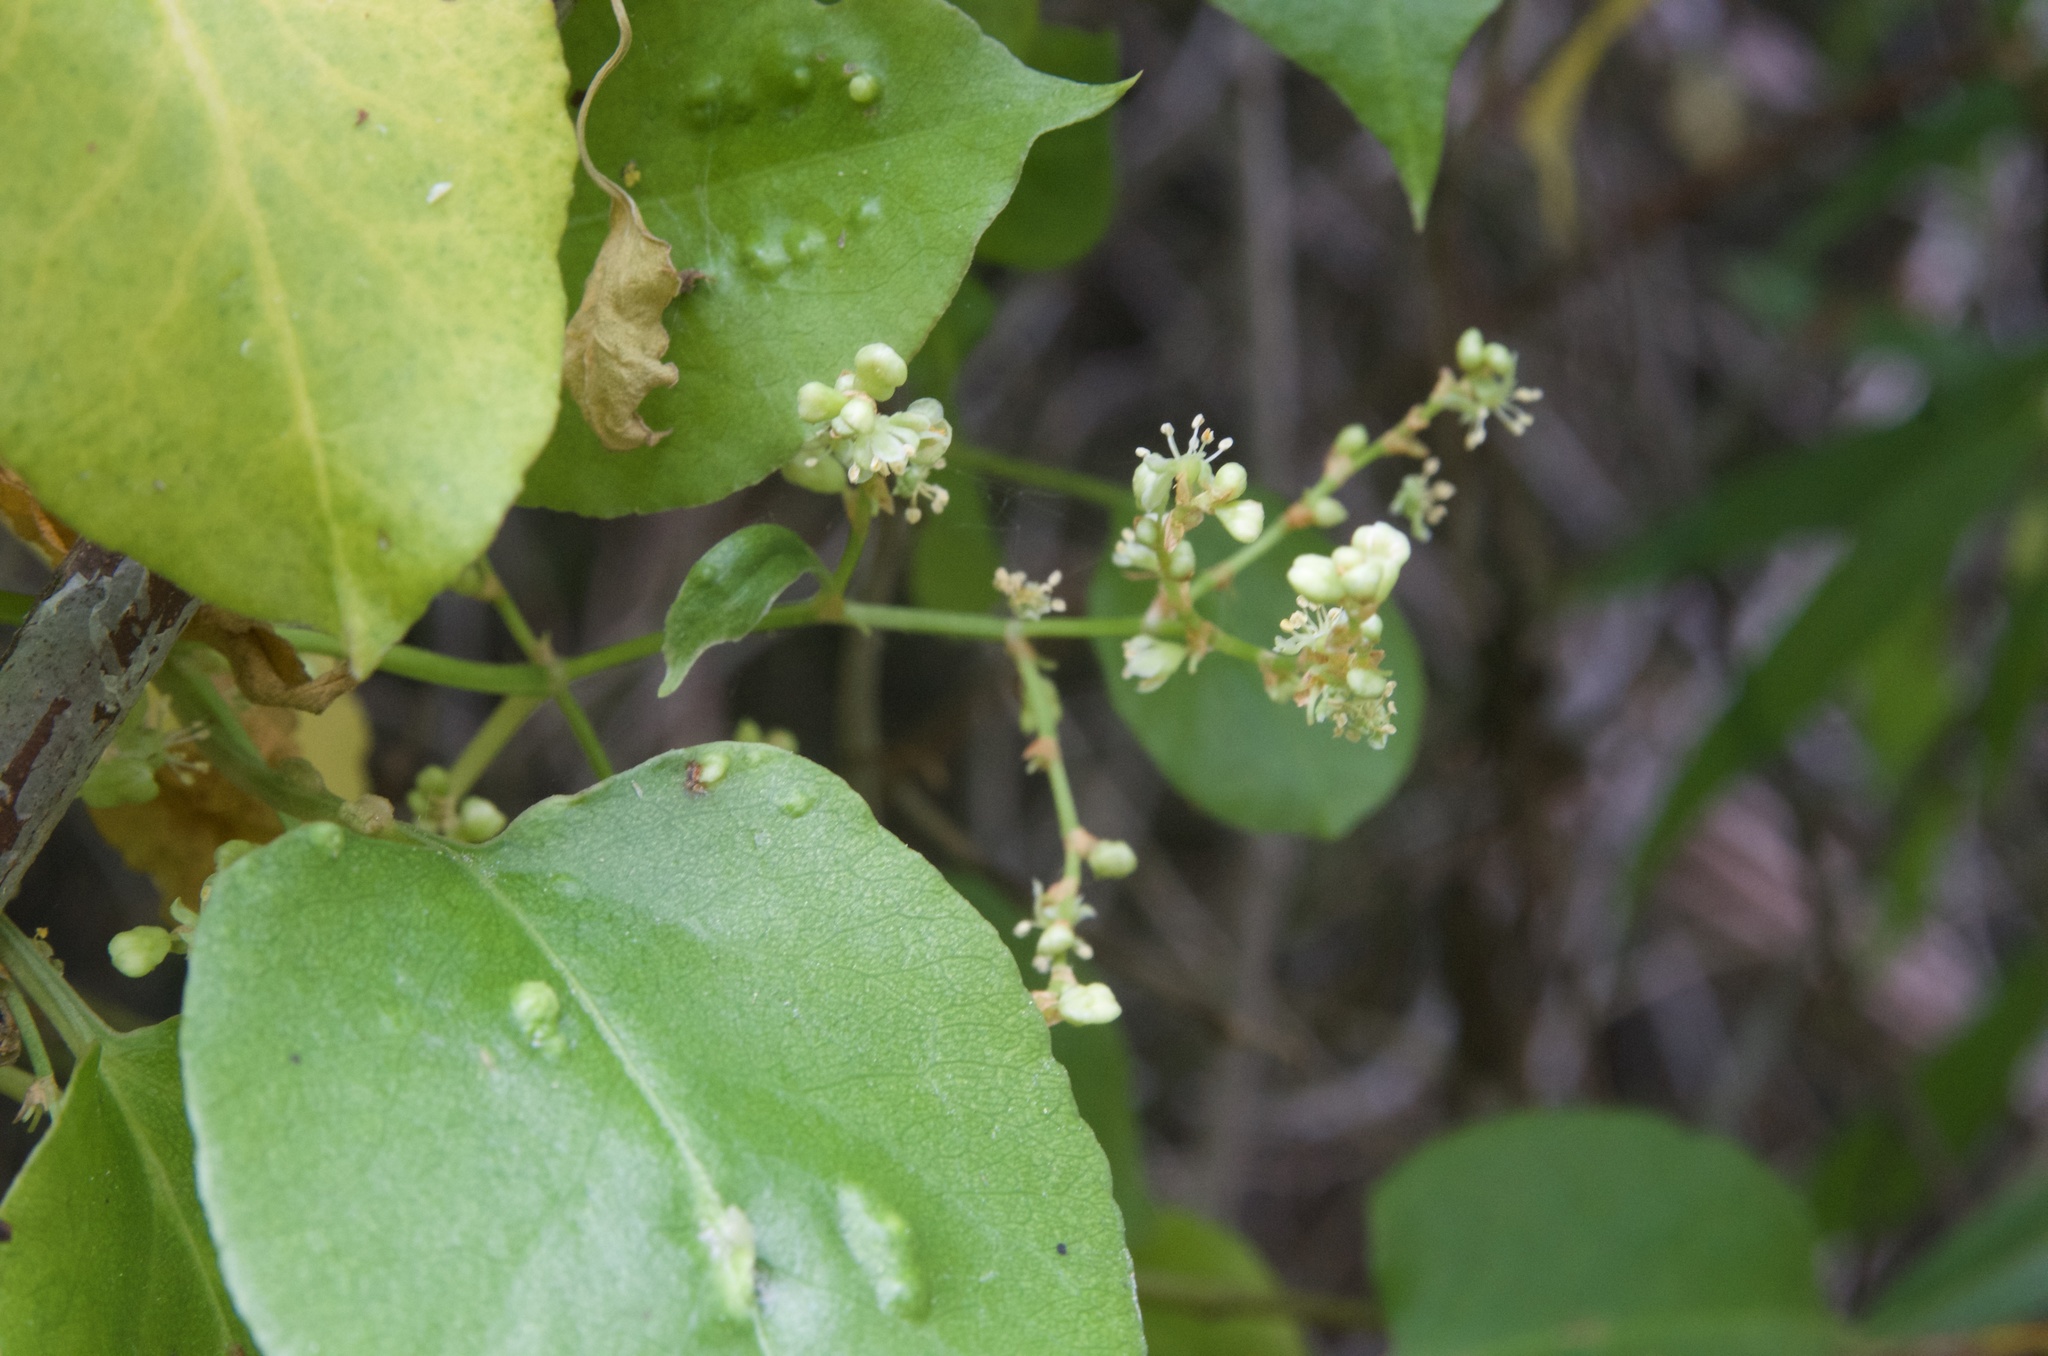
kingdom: Plantae
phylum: Tracheophyta
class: Magnoliopsida
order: Caryophyllales
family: Polygonaceae
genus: Muehlenbeckia
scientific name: Muehlenbeckia australis
